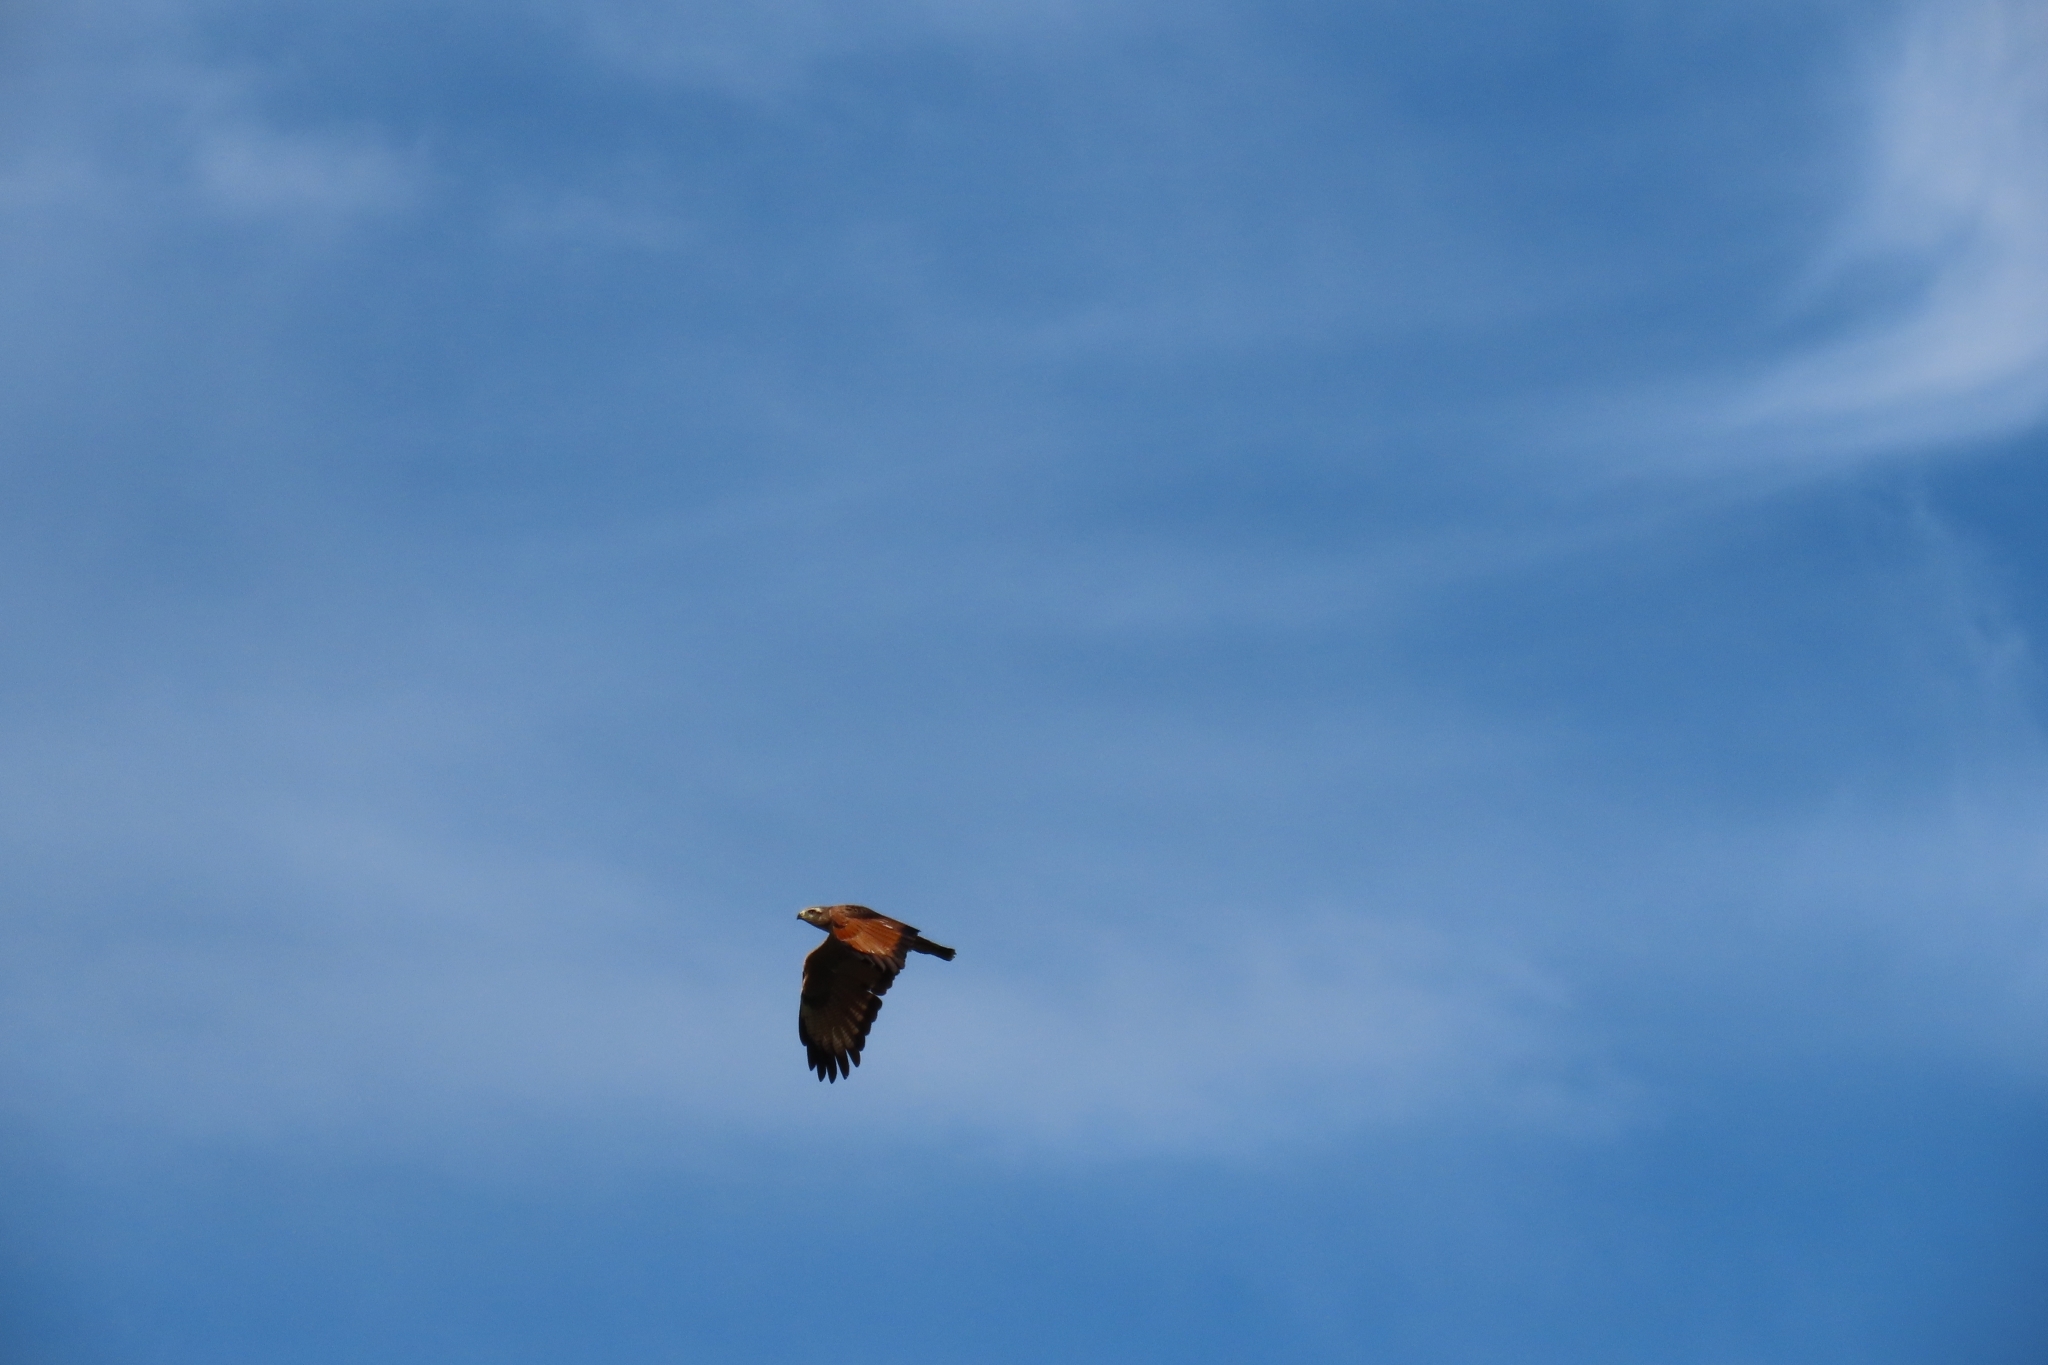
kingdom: Animalia
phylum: Chordata
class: Aves
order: Accipitriformes
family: Accipitridae
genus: Buteogallus
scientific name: Buteogallus meridionalis
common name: Savanna hawk
